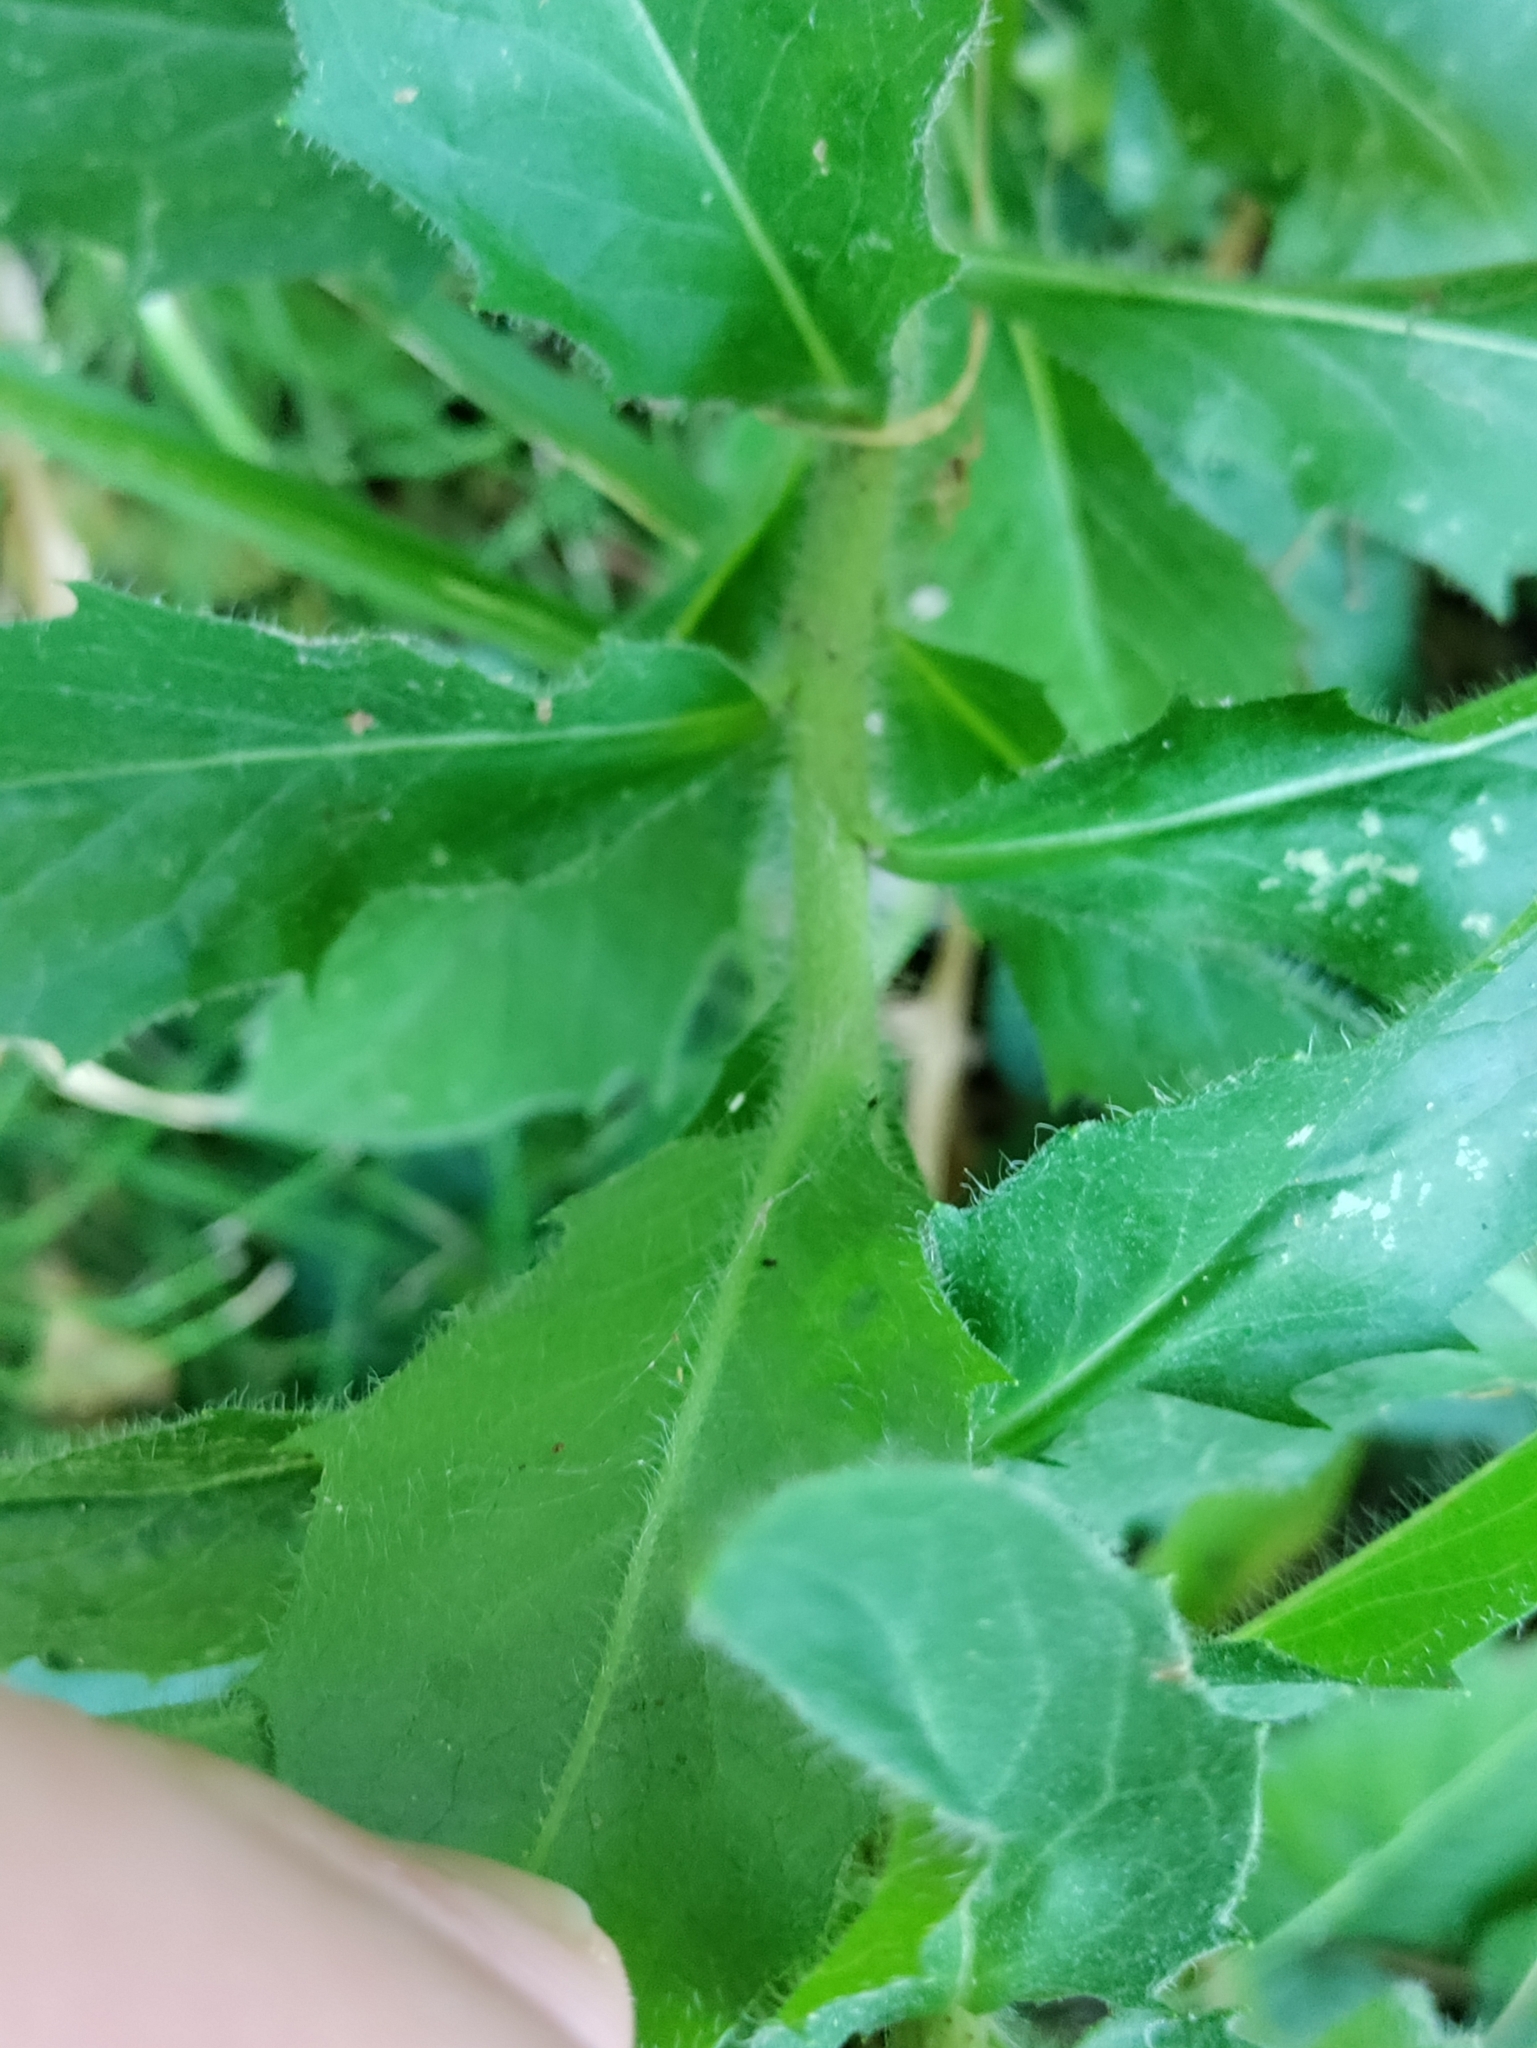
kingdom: Plantae
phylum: Tracheophyta
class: Magnoliopsida
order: Asterales
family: Asteraceae
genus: Hieracium
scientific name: Hieracium sabaudum
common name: New england hawkweed
